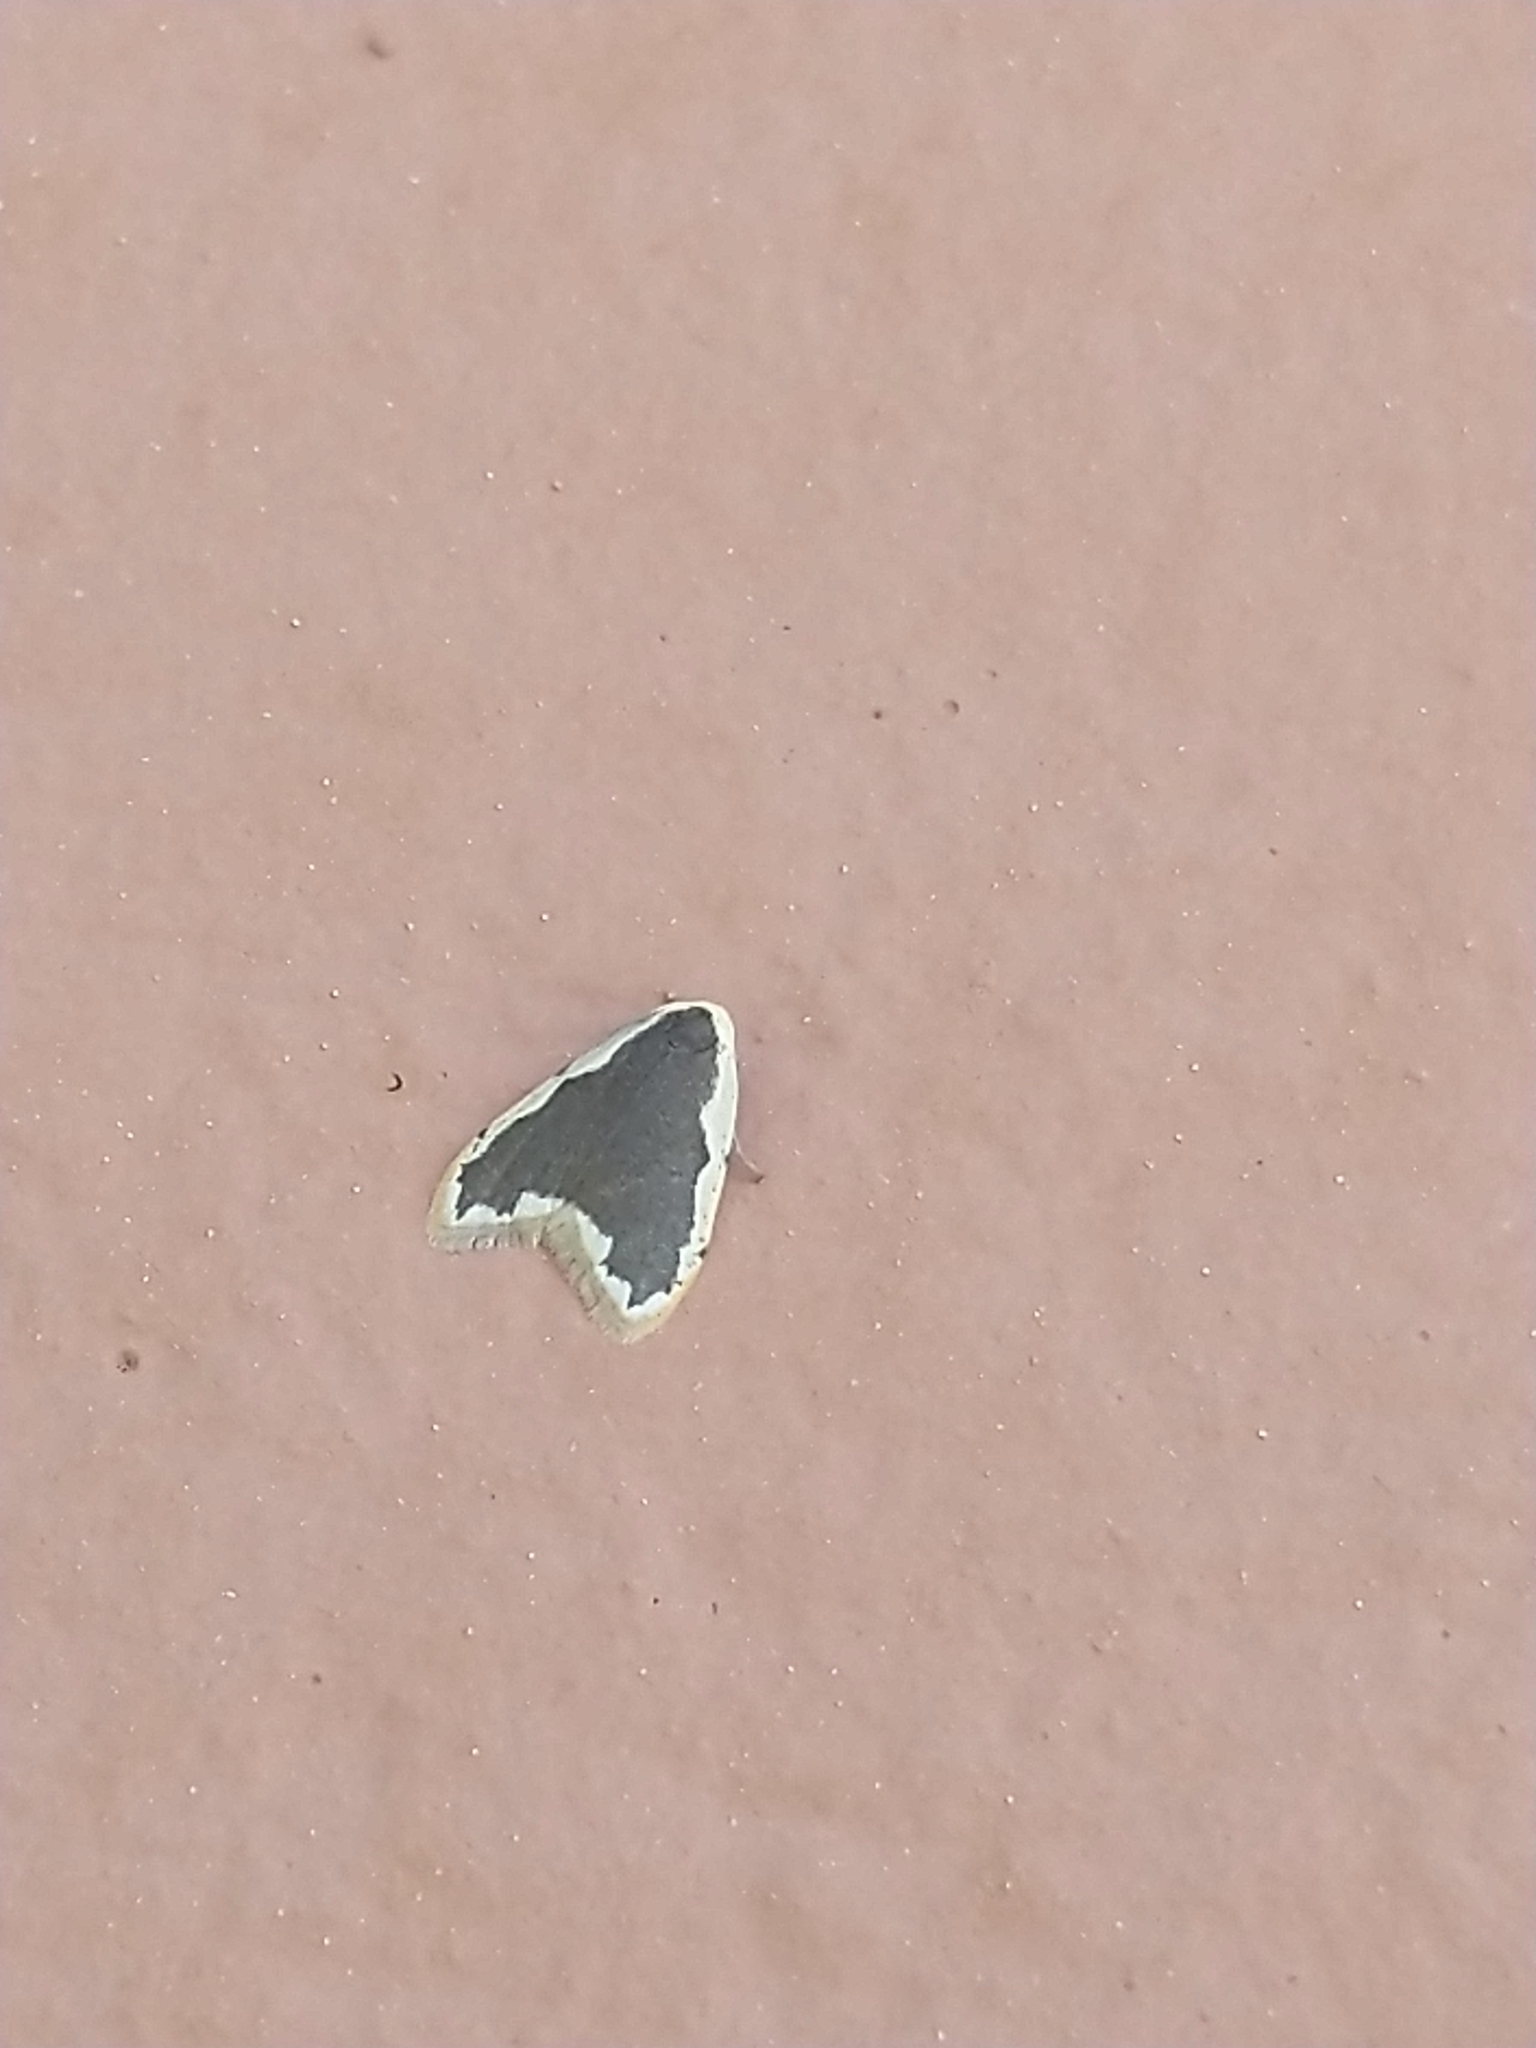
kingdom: Animalia
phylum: Arthropoda
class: Insecta
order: Lepidoptera
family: Erebidae
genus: Diduga
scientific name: Diduga flavicostata
